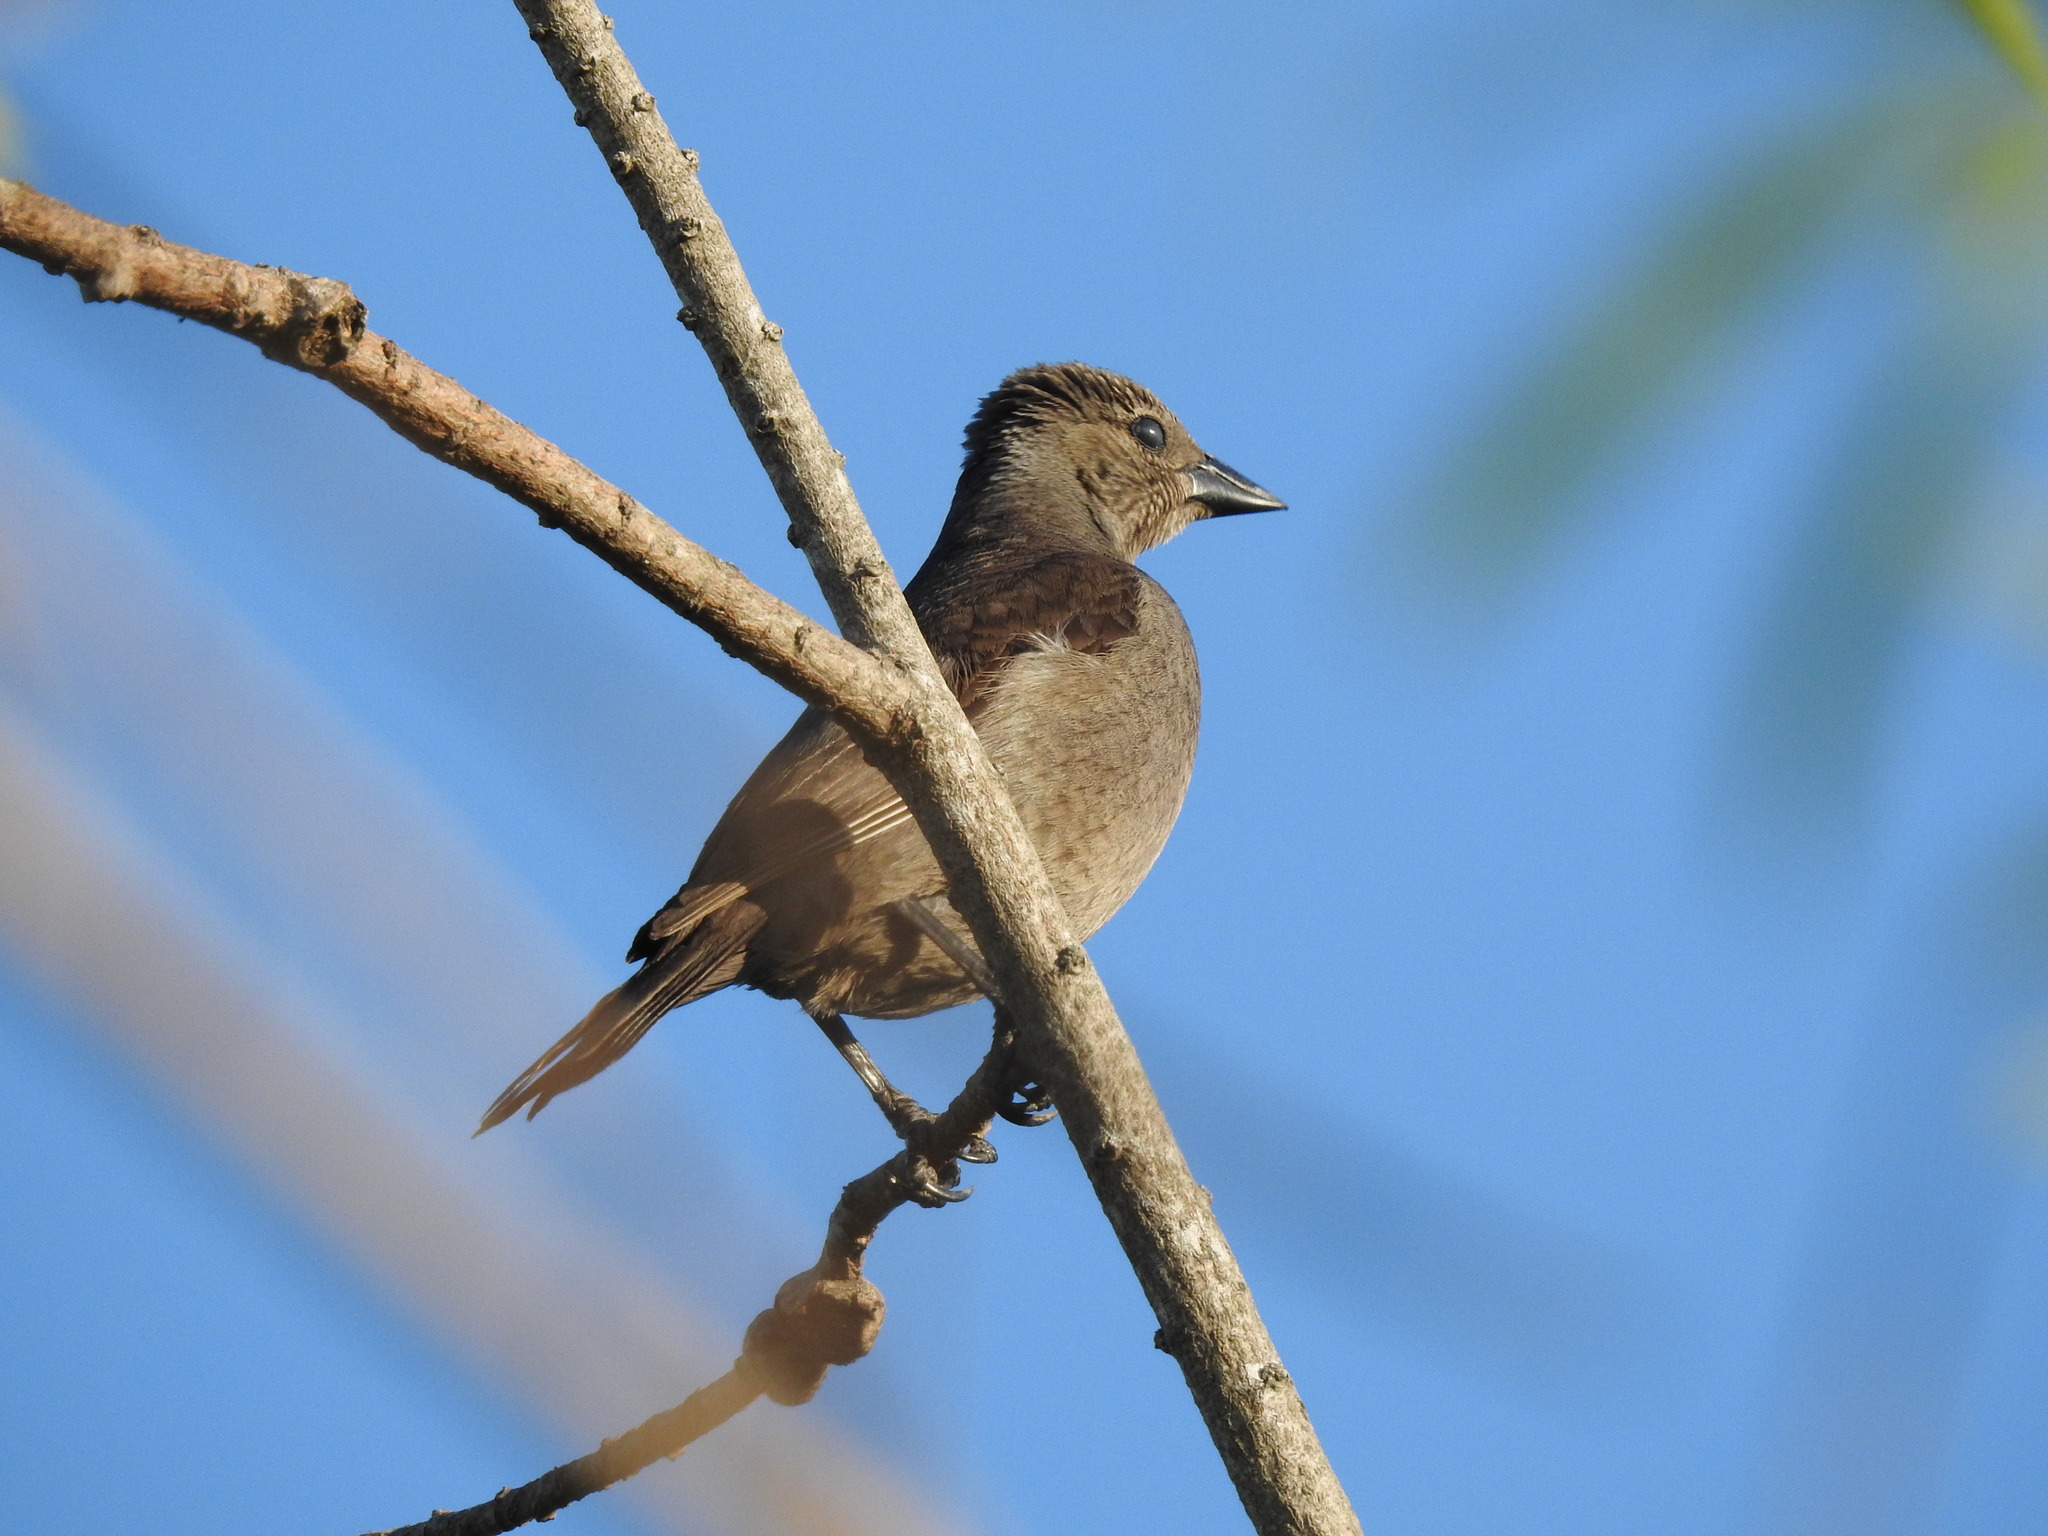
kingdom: Animalia
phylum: Chordata
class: Aves
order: Passeriformes
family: Icteridae
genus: Molothrus
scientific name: Molothrus bonariensis
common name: Shiny cowbird
